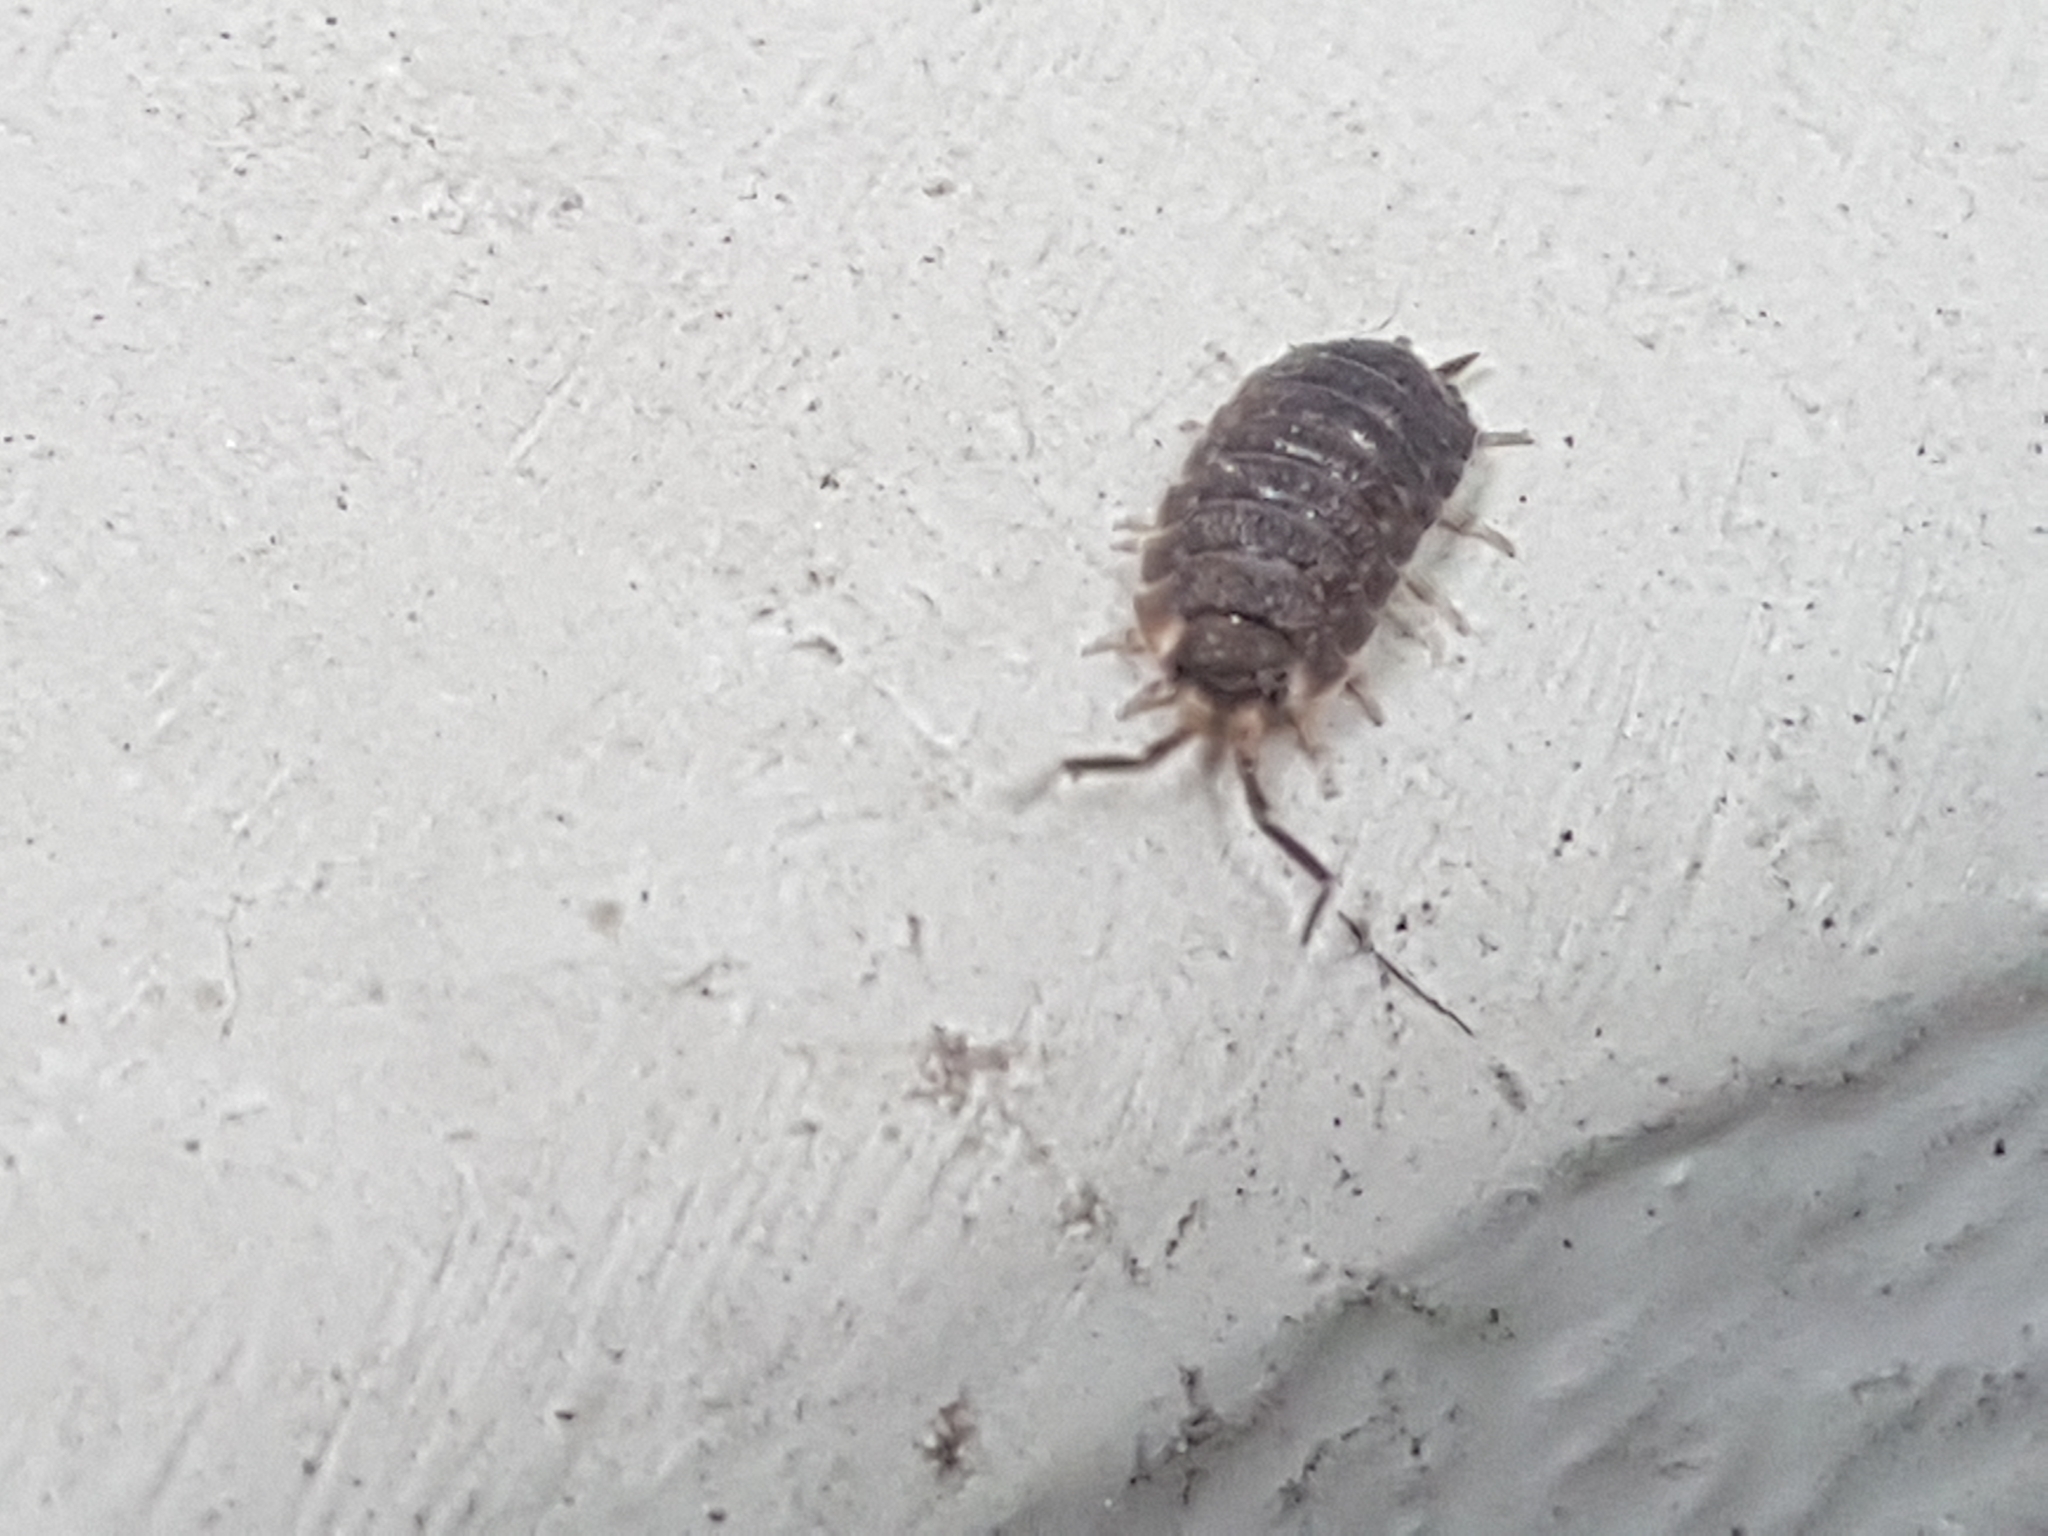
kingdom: Animalia
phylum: Arthropoda
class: Malacostraca
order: Isopoda
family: Porcellionidae
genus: Porcellio
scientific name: Porcellio scaber
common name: Common rough woodlouse
